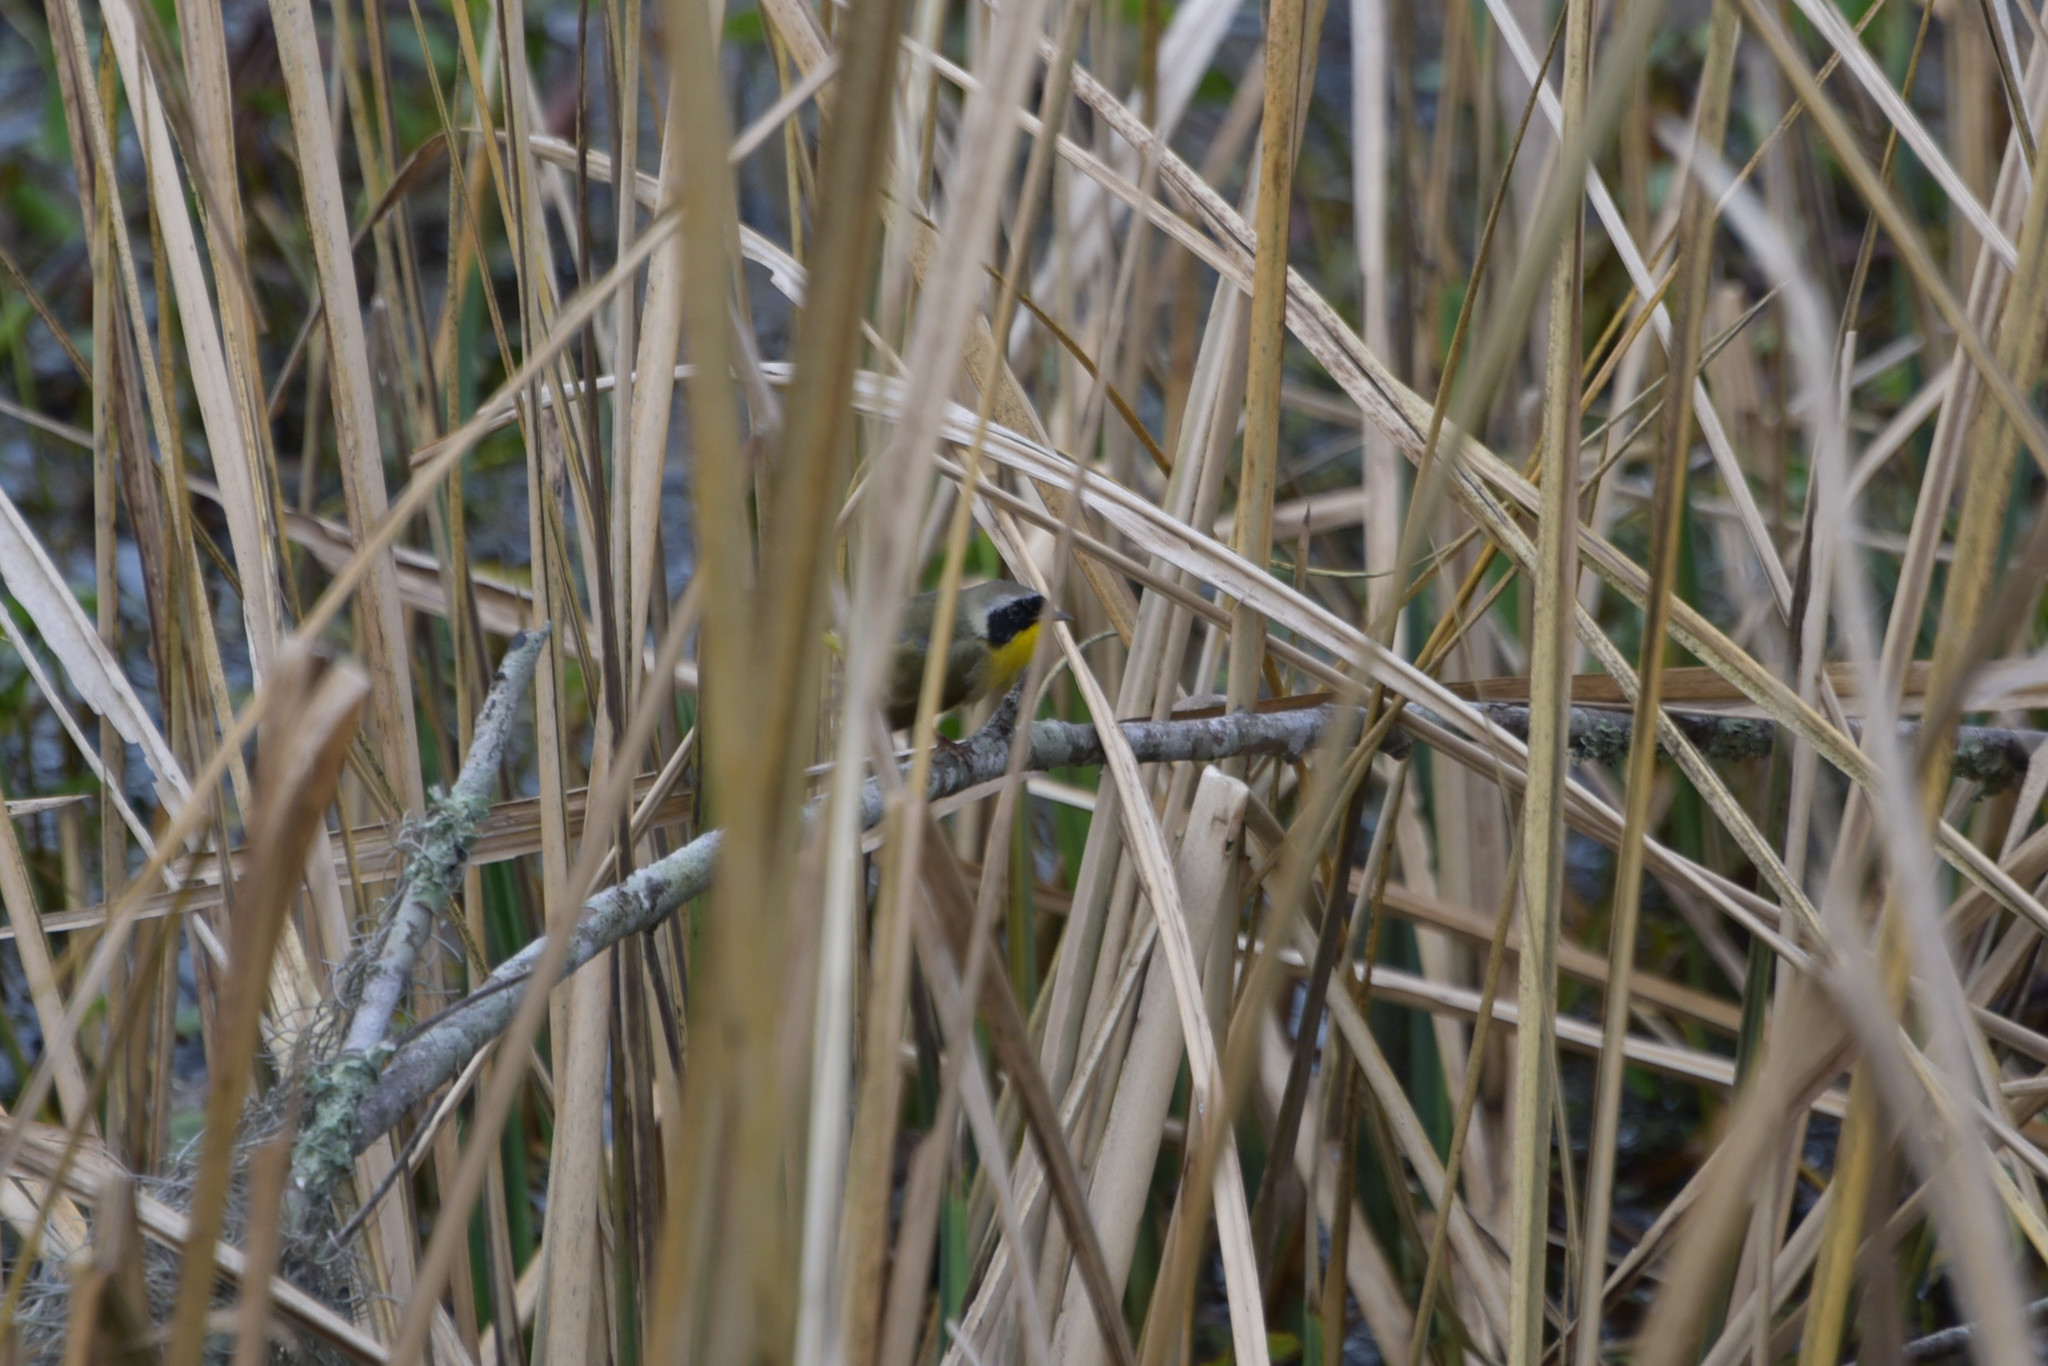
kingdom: Animalia
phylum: Chordata
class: Aves
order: Passeriformes
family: Parulidae
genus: Geothlypis
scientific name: Geothlypis trichas
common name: Common yellowthroat
